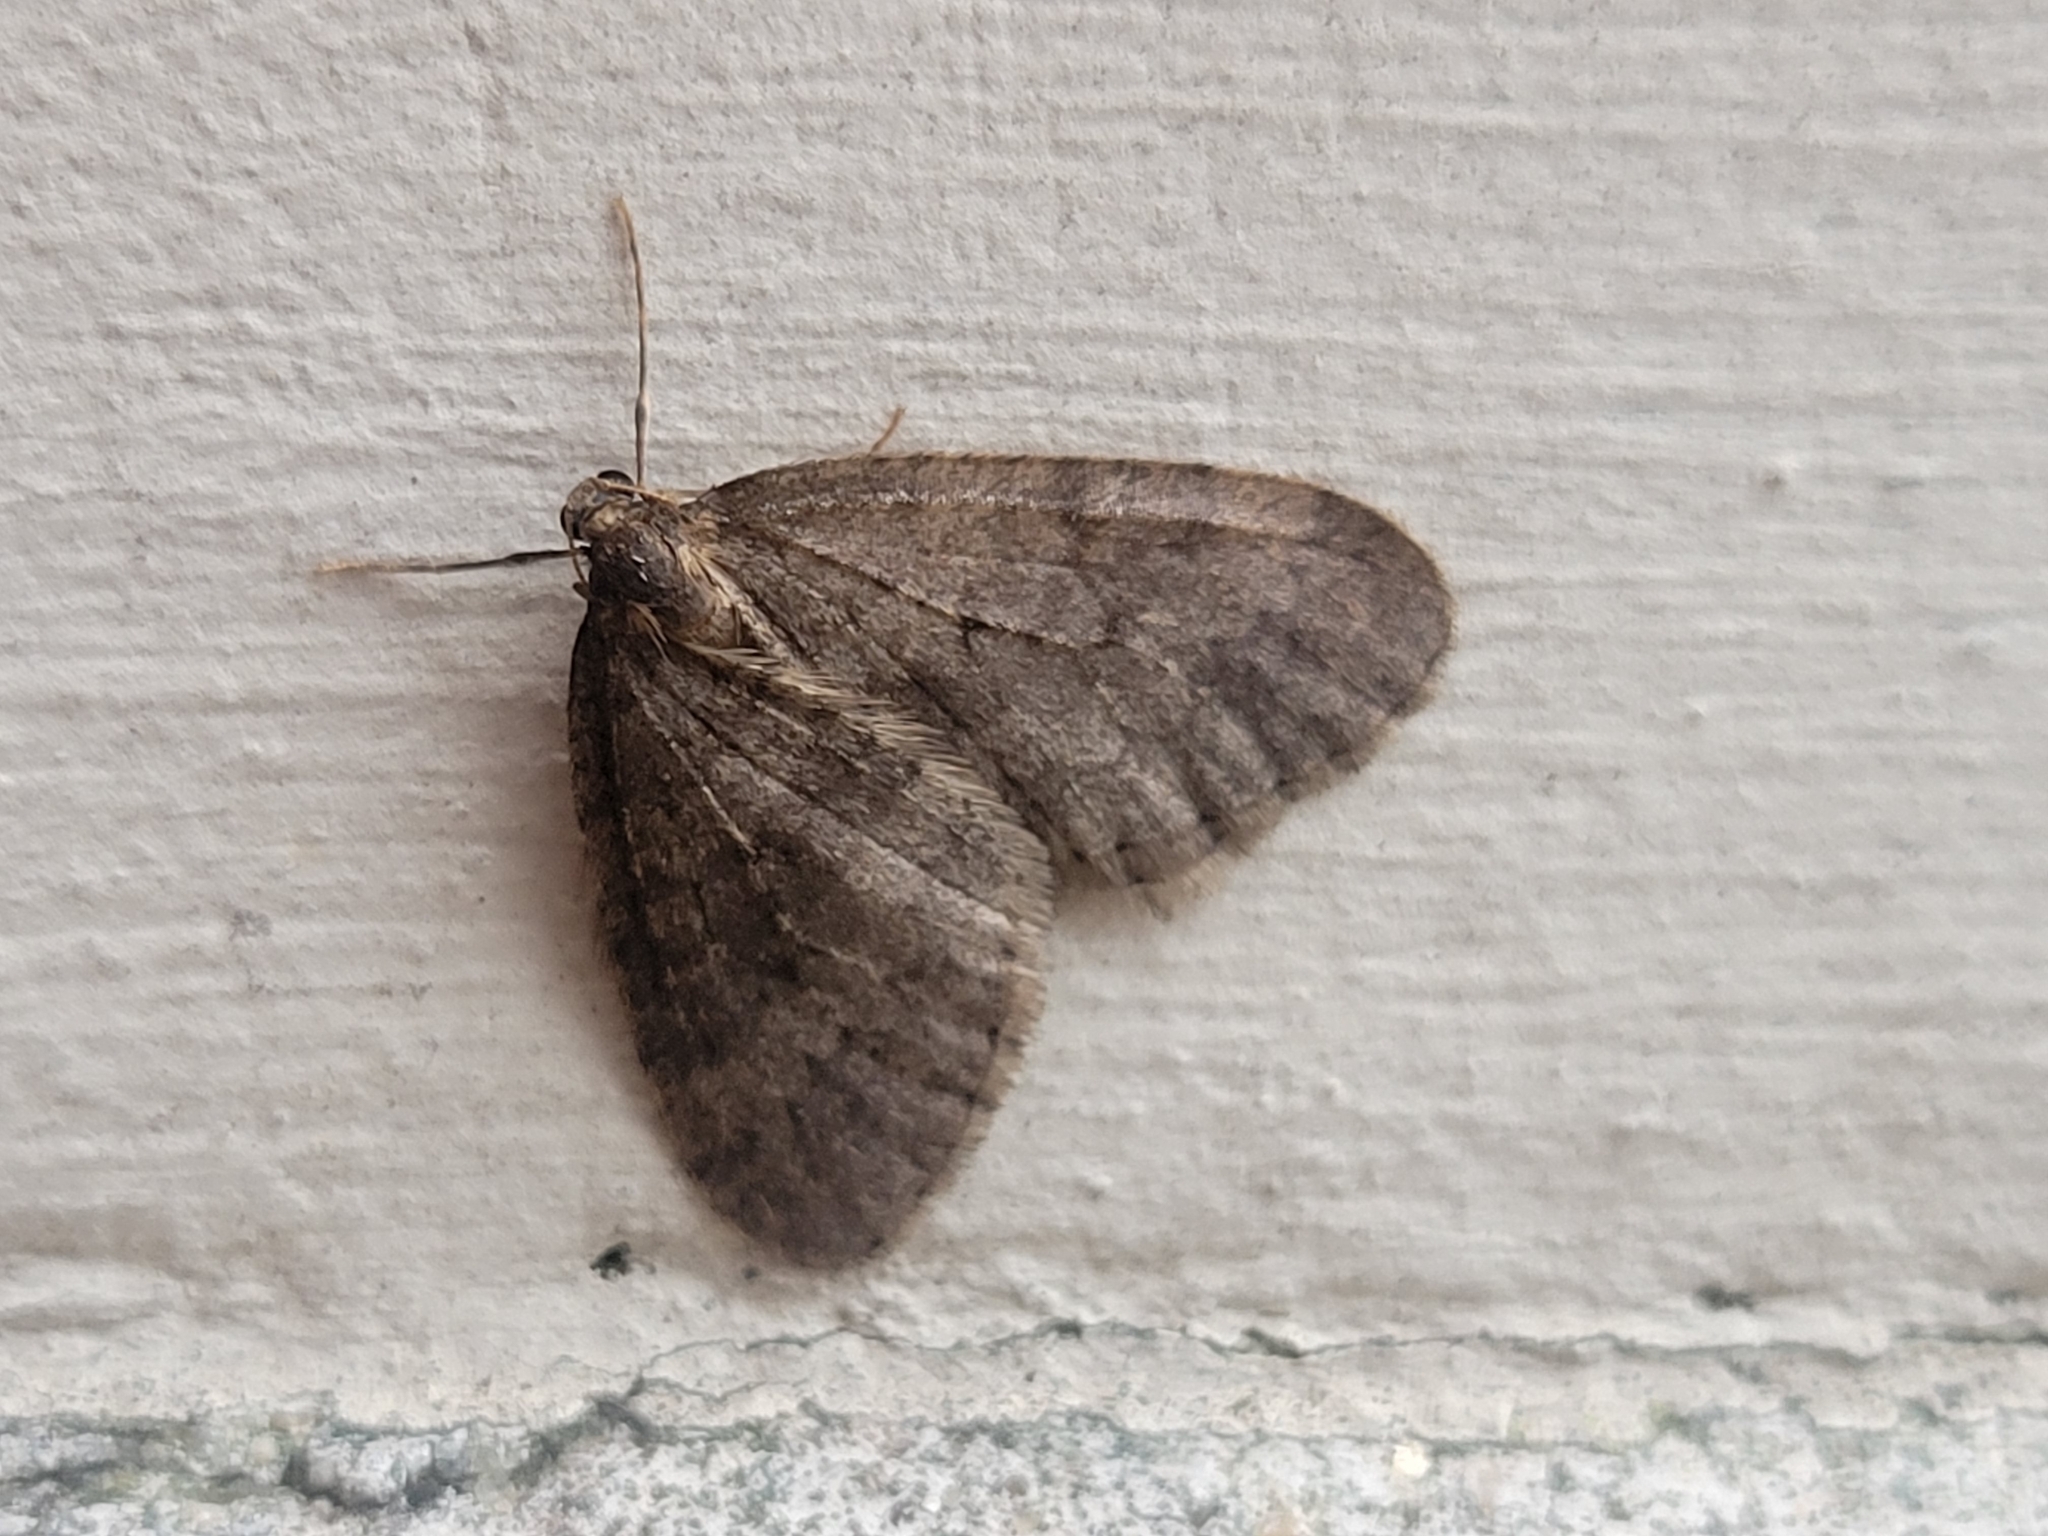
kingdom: Animalia
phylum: Arthropoda
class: Insecta
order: Lepidoptera
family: Geometridae
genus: Operophtera
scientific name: Operophtera brumata
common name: Winter moth
